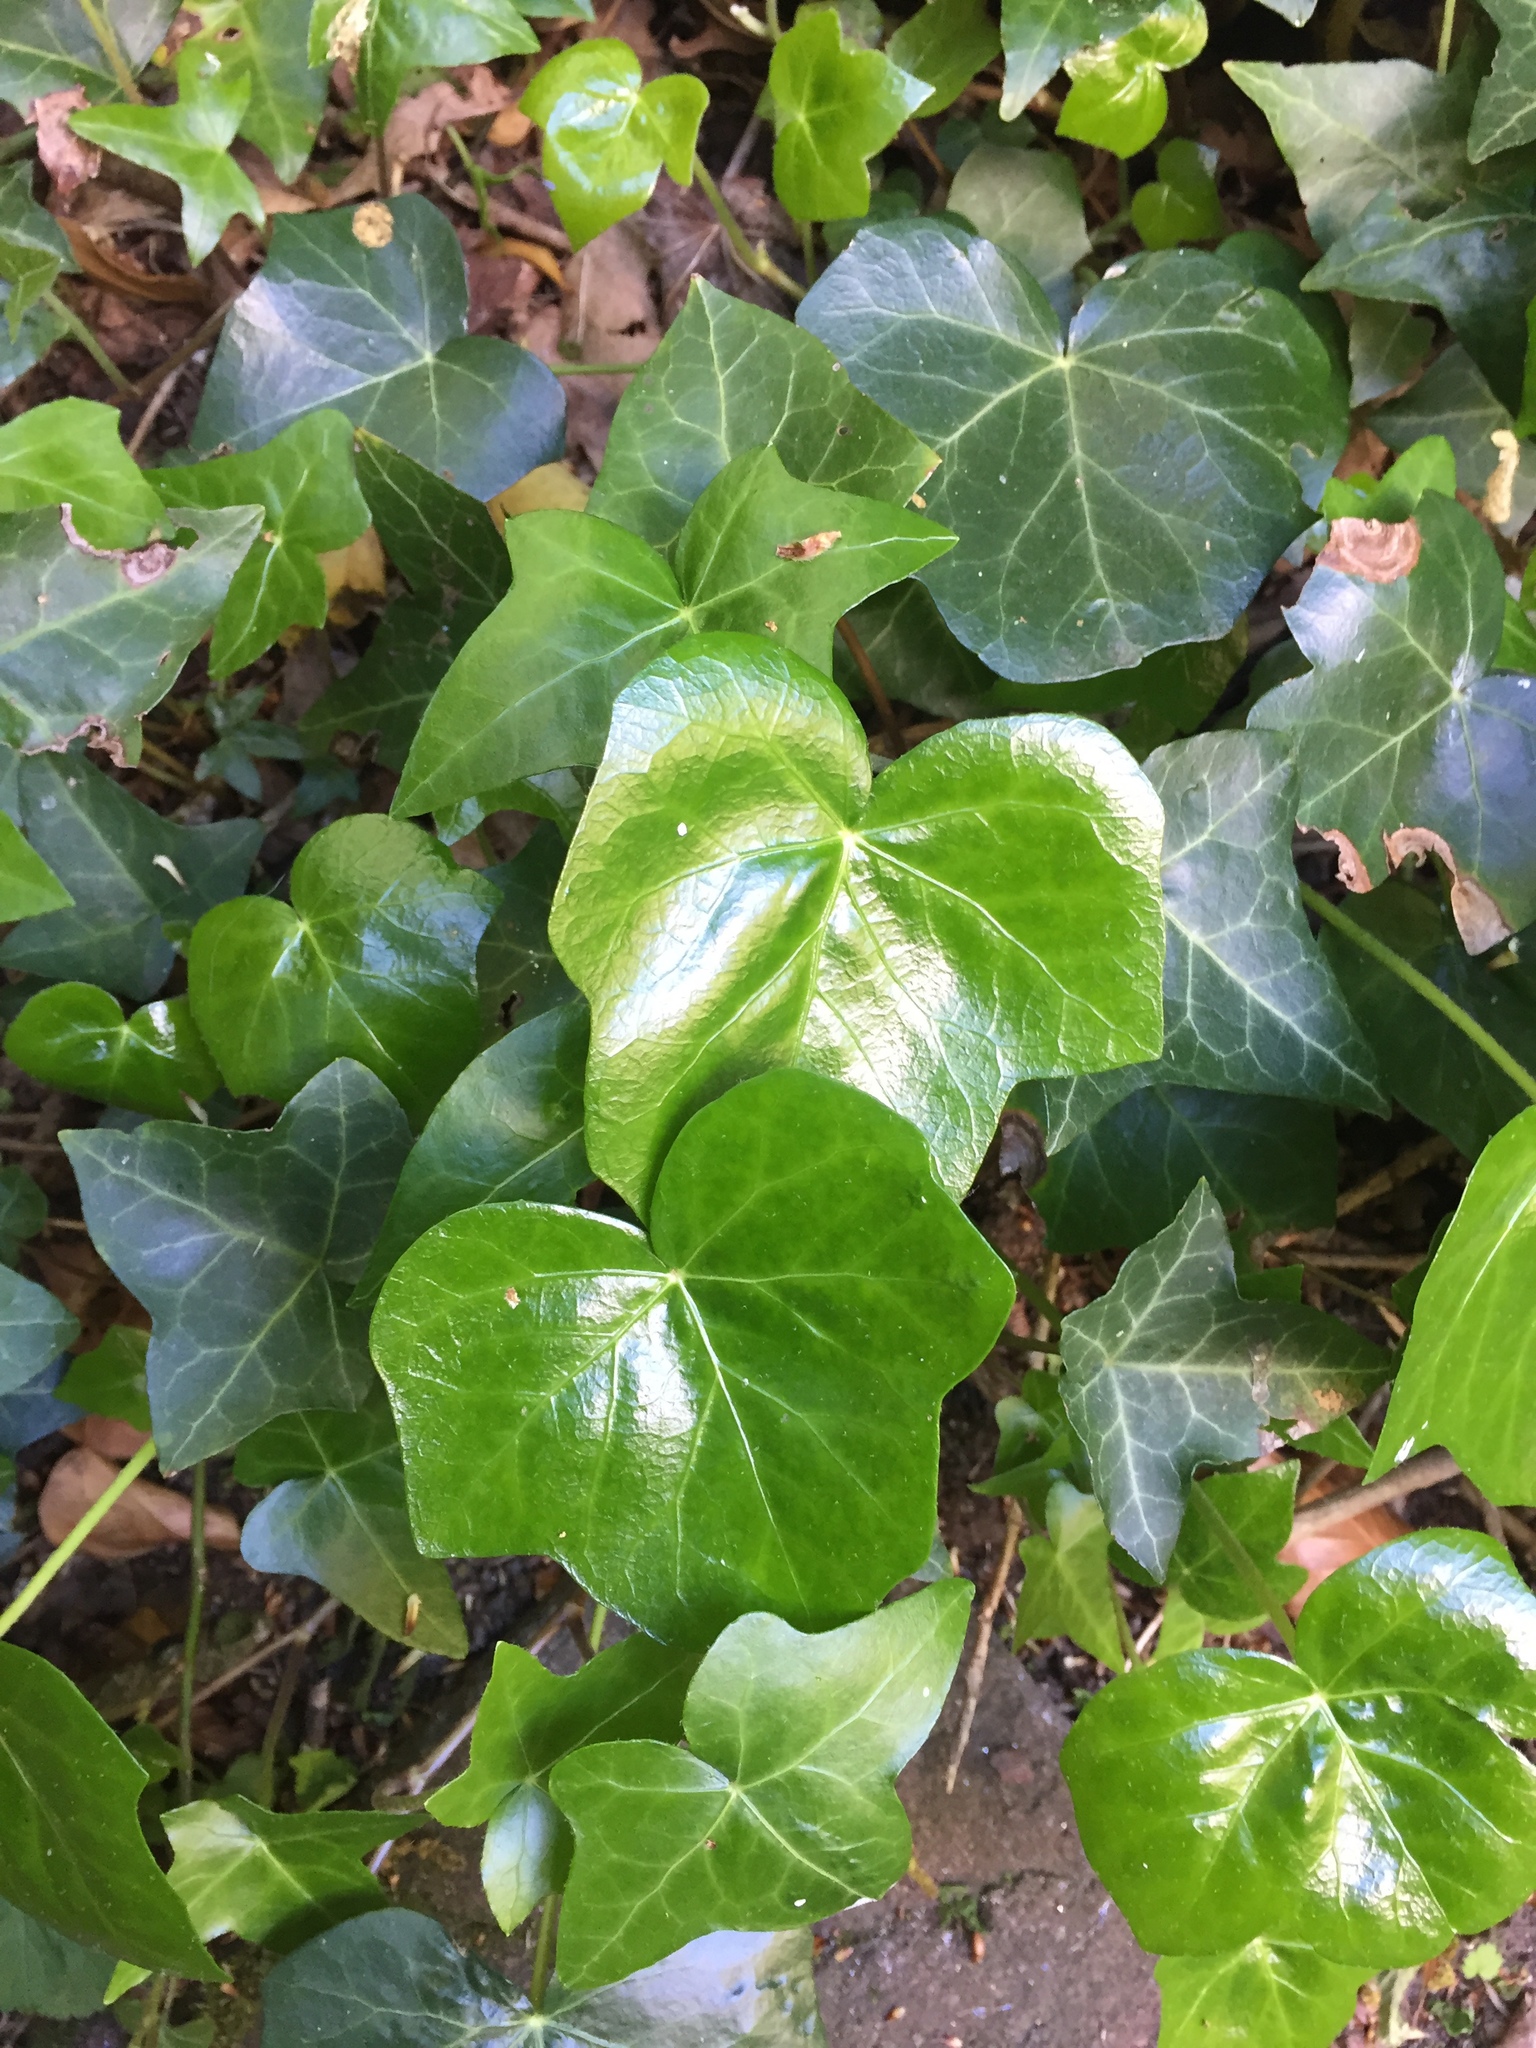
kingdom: Plantae
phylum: Tracheophyta
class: Magnoliopsida
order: Apiales
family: Araliaceae
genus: Hedera
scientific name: Hedera helix
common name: Ivy
